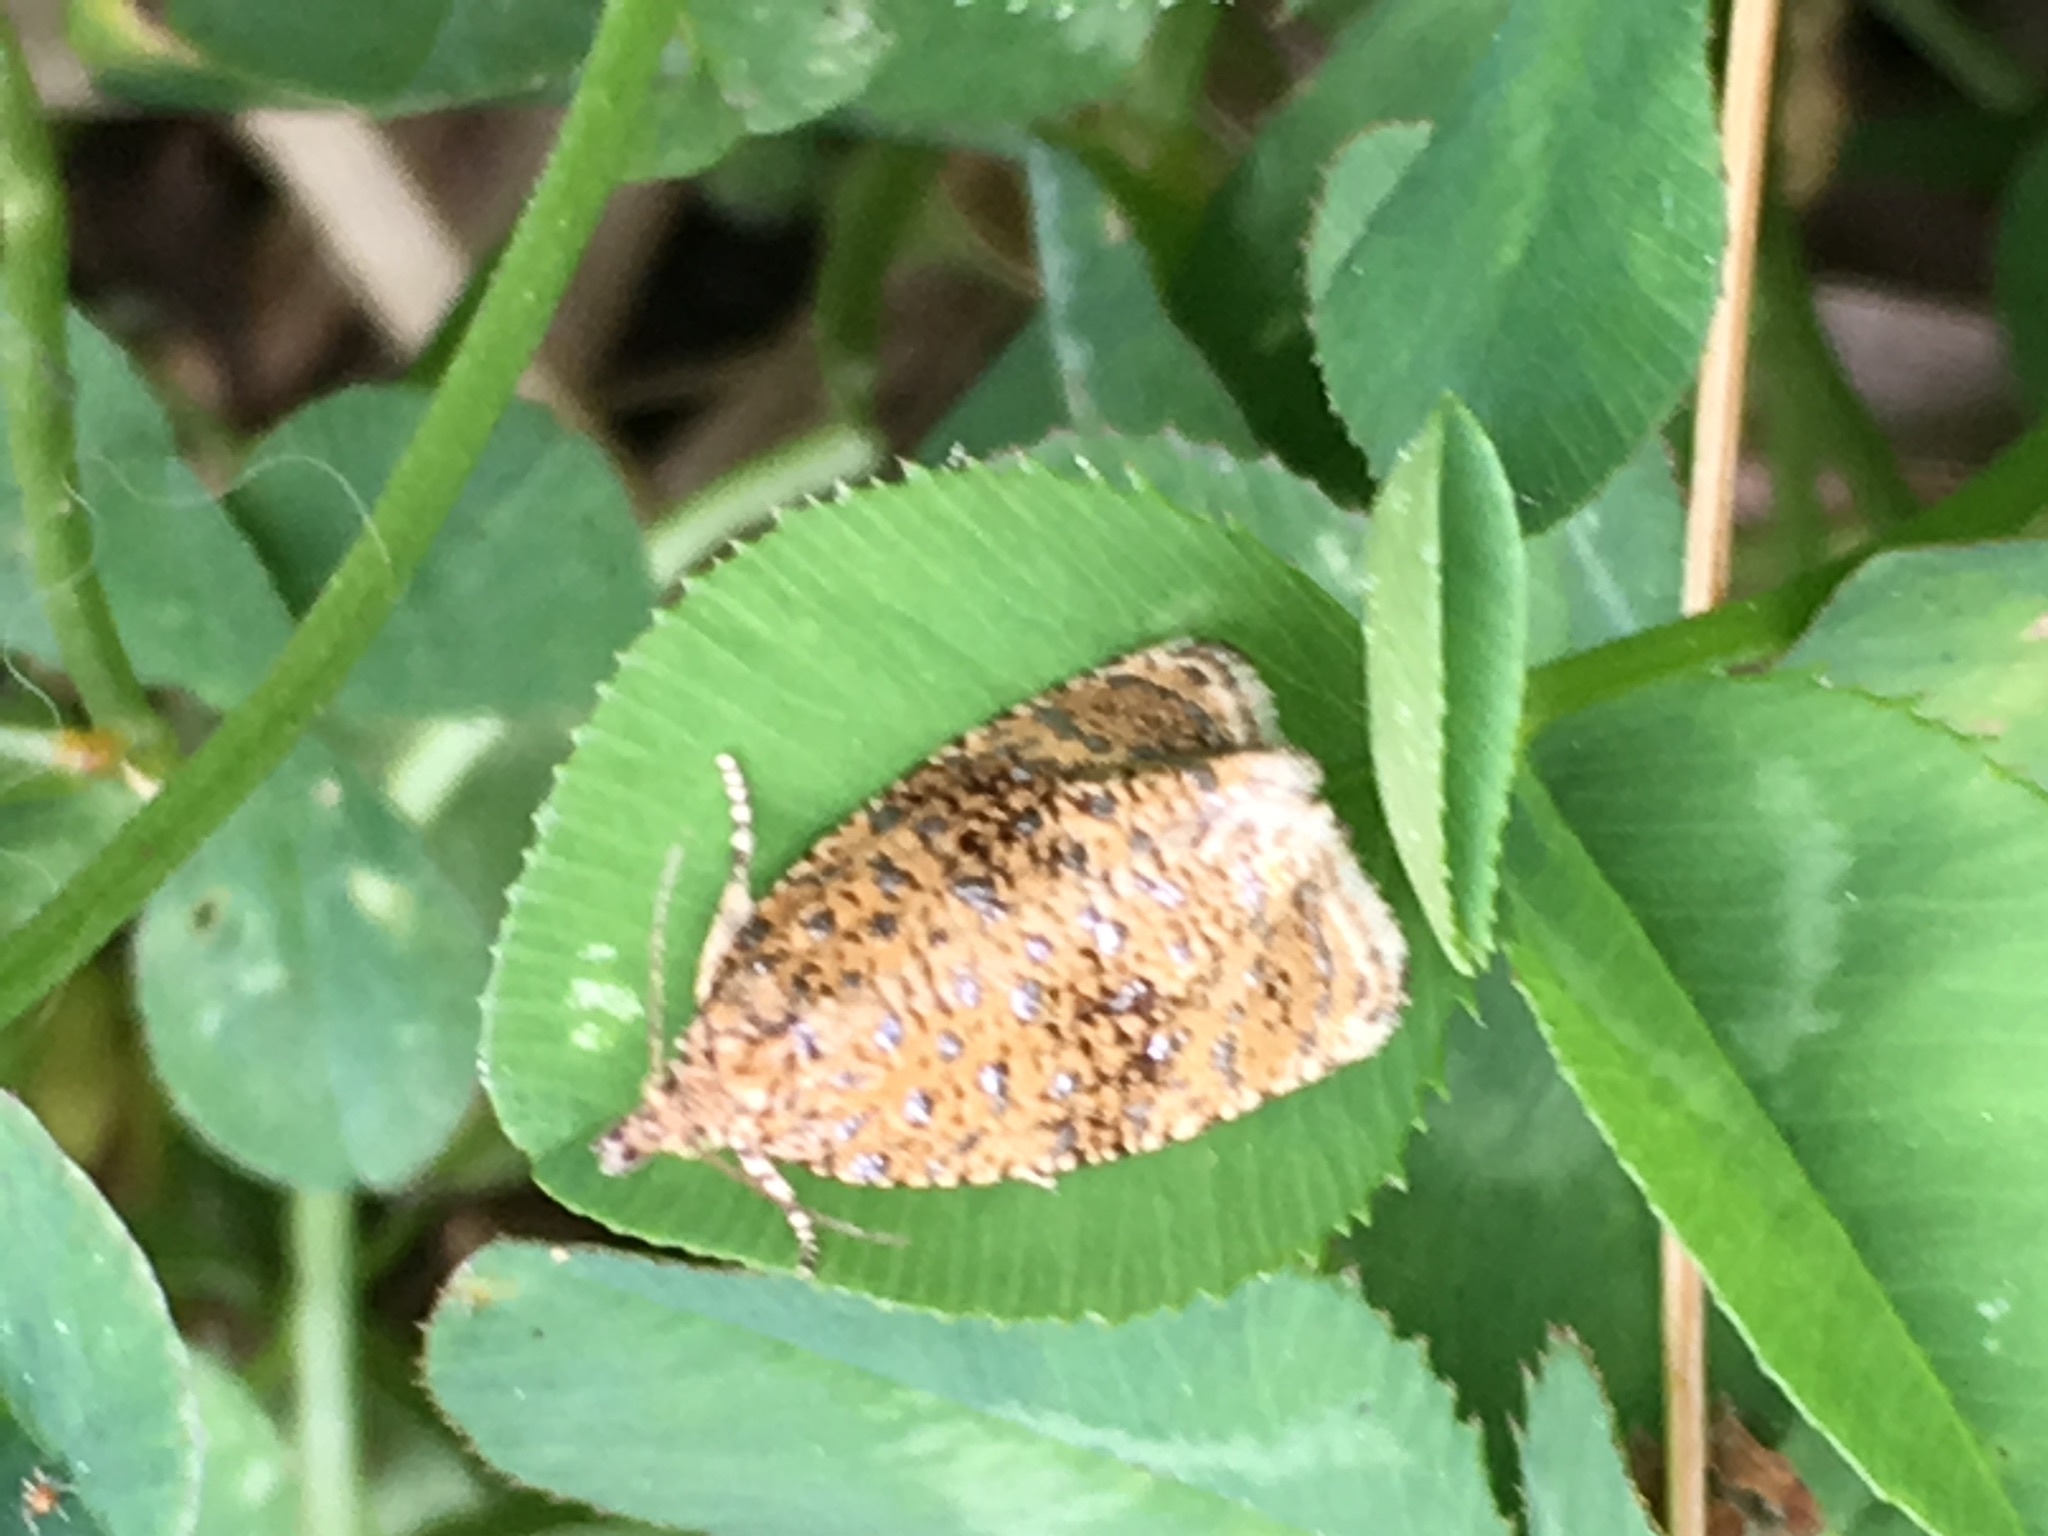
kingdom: Animalia
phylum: Arthropoda
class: Insecta
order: Lepidoptera
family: Tortricidae
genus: Olethreutes
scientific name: Olethreutes astrologana
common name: Astronomer moth
